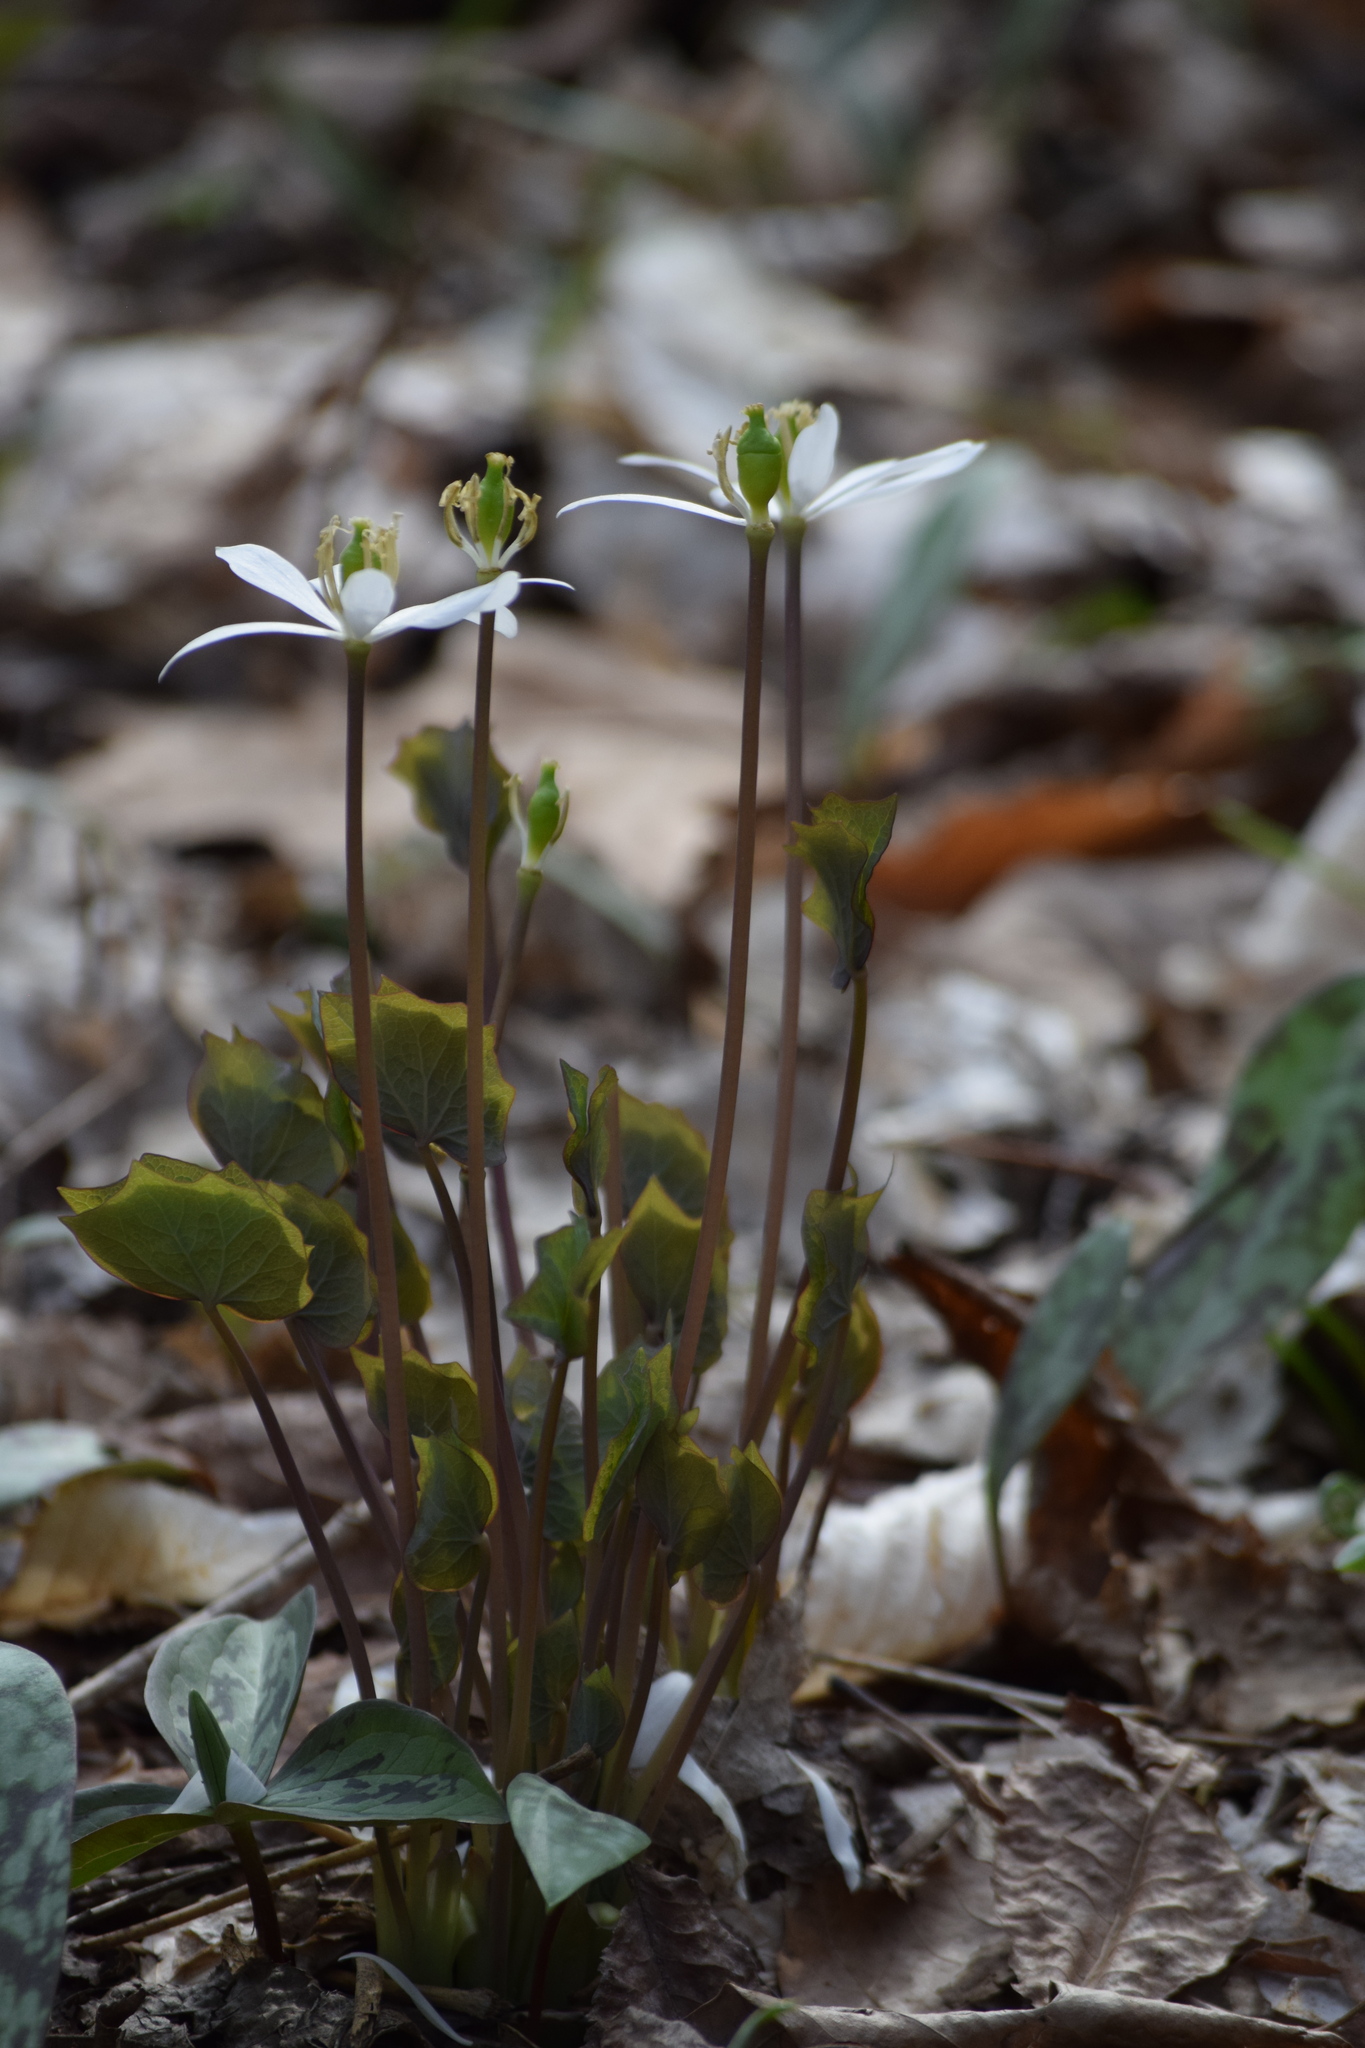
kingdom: Plantae
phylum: Tracheophyta
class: Magnoliopsida
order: Ranunculales
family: Berberidaceae
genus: Jeffersonia
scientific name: Jeffersonia diphylla
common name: Rheumatism-root
